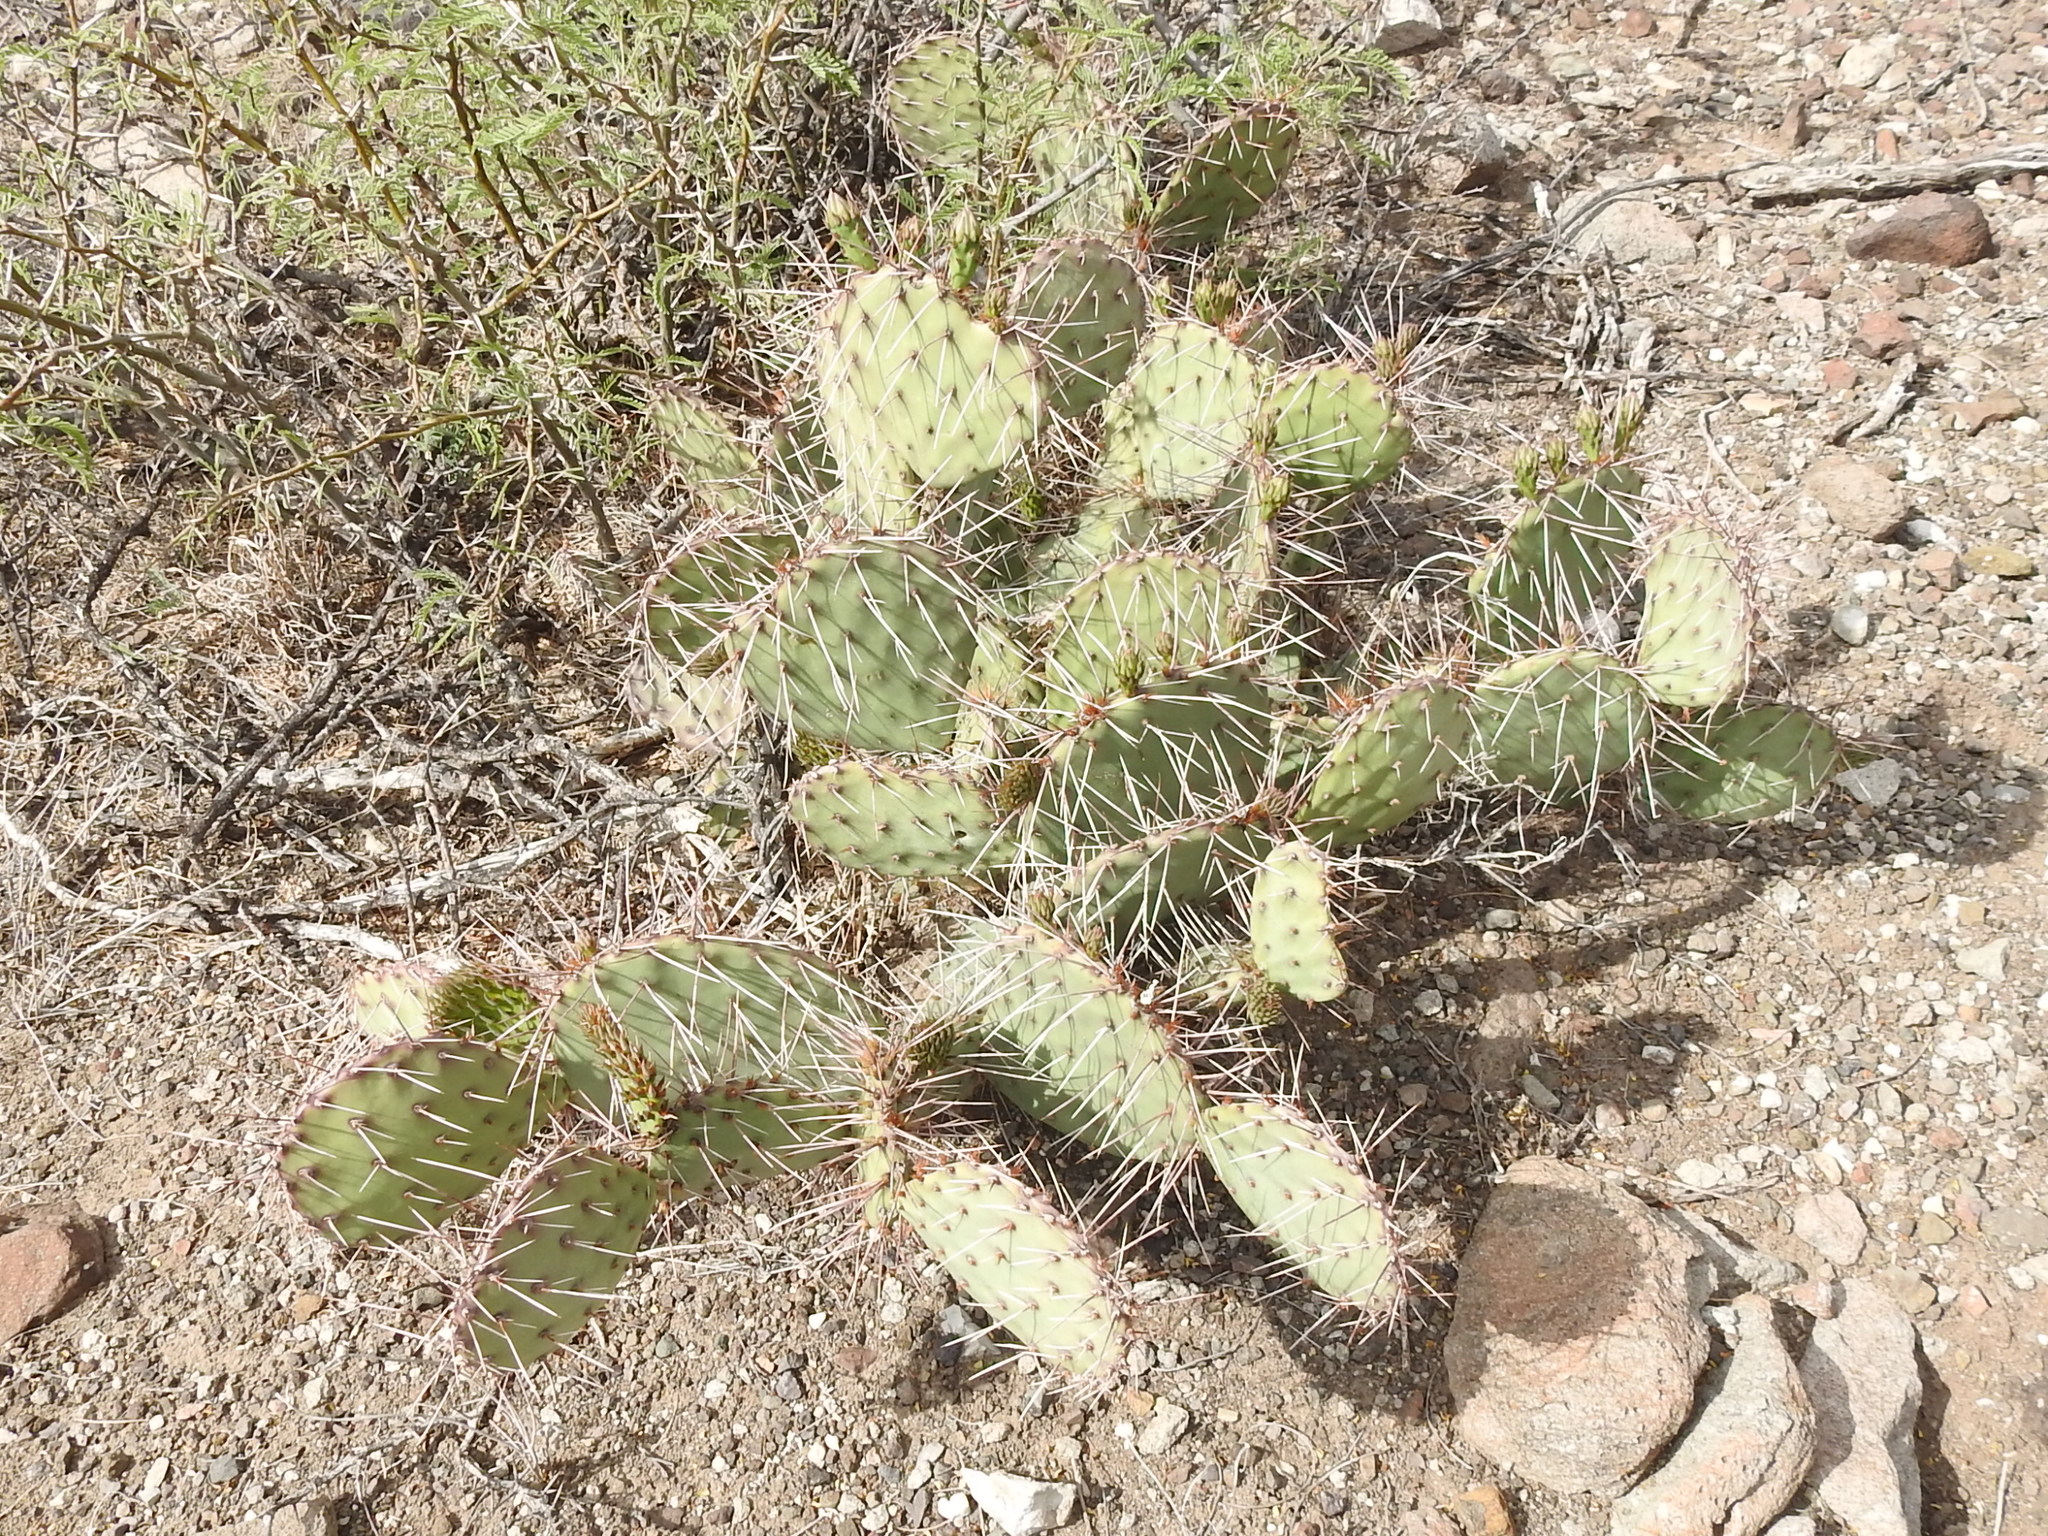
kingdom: Plantae
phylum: Tracheophyta
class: Magnoliopsida
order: Caryophyllales
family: Cactaceae
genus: Opuntia
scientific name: Opuntia phaeacantha
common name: New mexico prickly-pear
